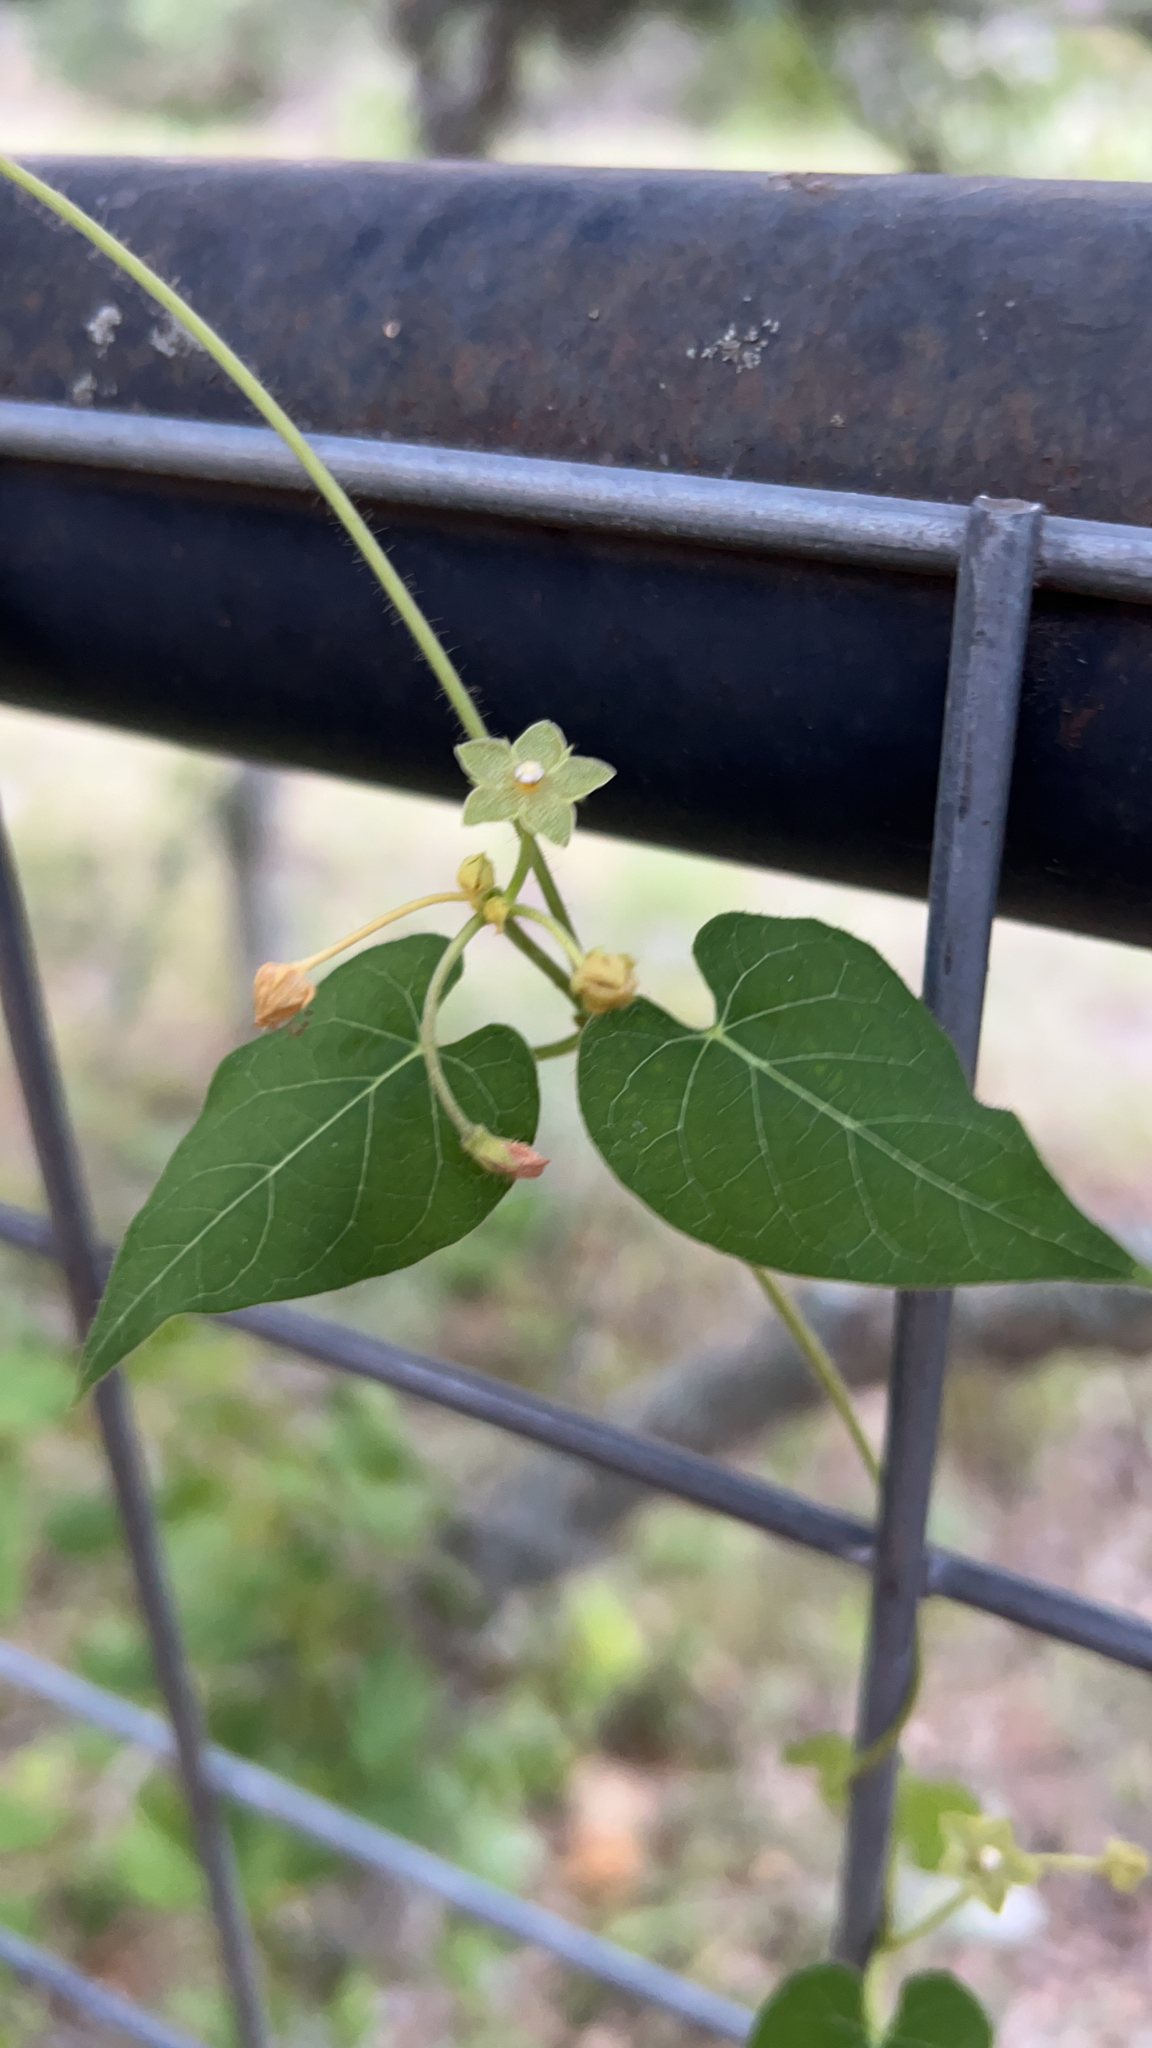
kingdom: Plantae
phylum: Tracheophyta
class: Magnoliopsida
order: Gentianales
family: Apocynaceae
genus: Dictyanthus
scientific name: Dictyanthus reticulatus
